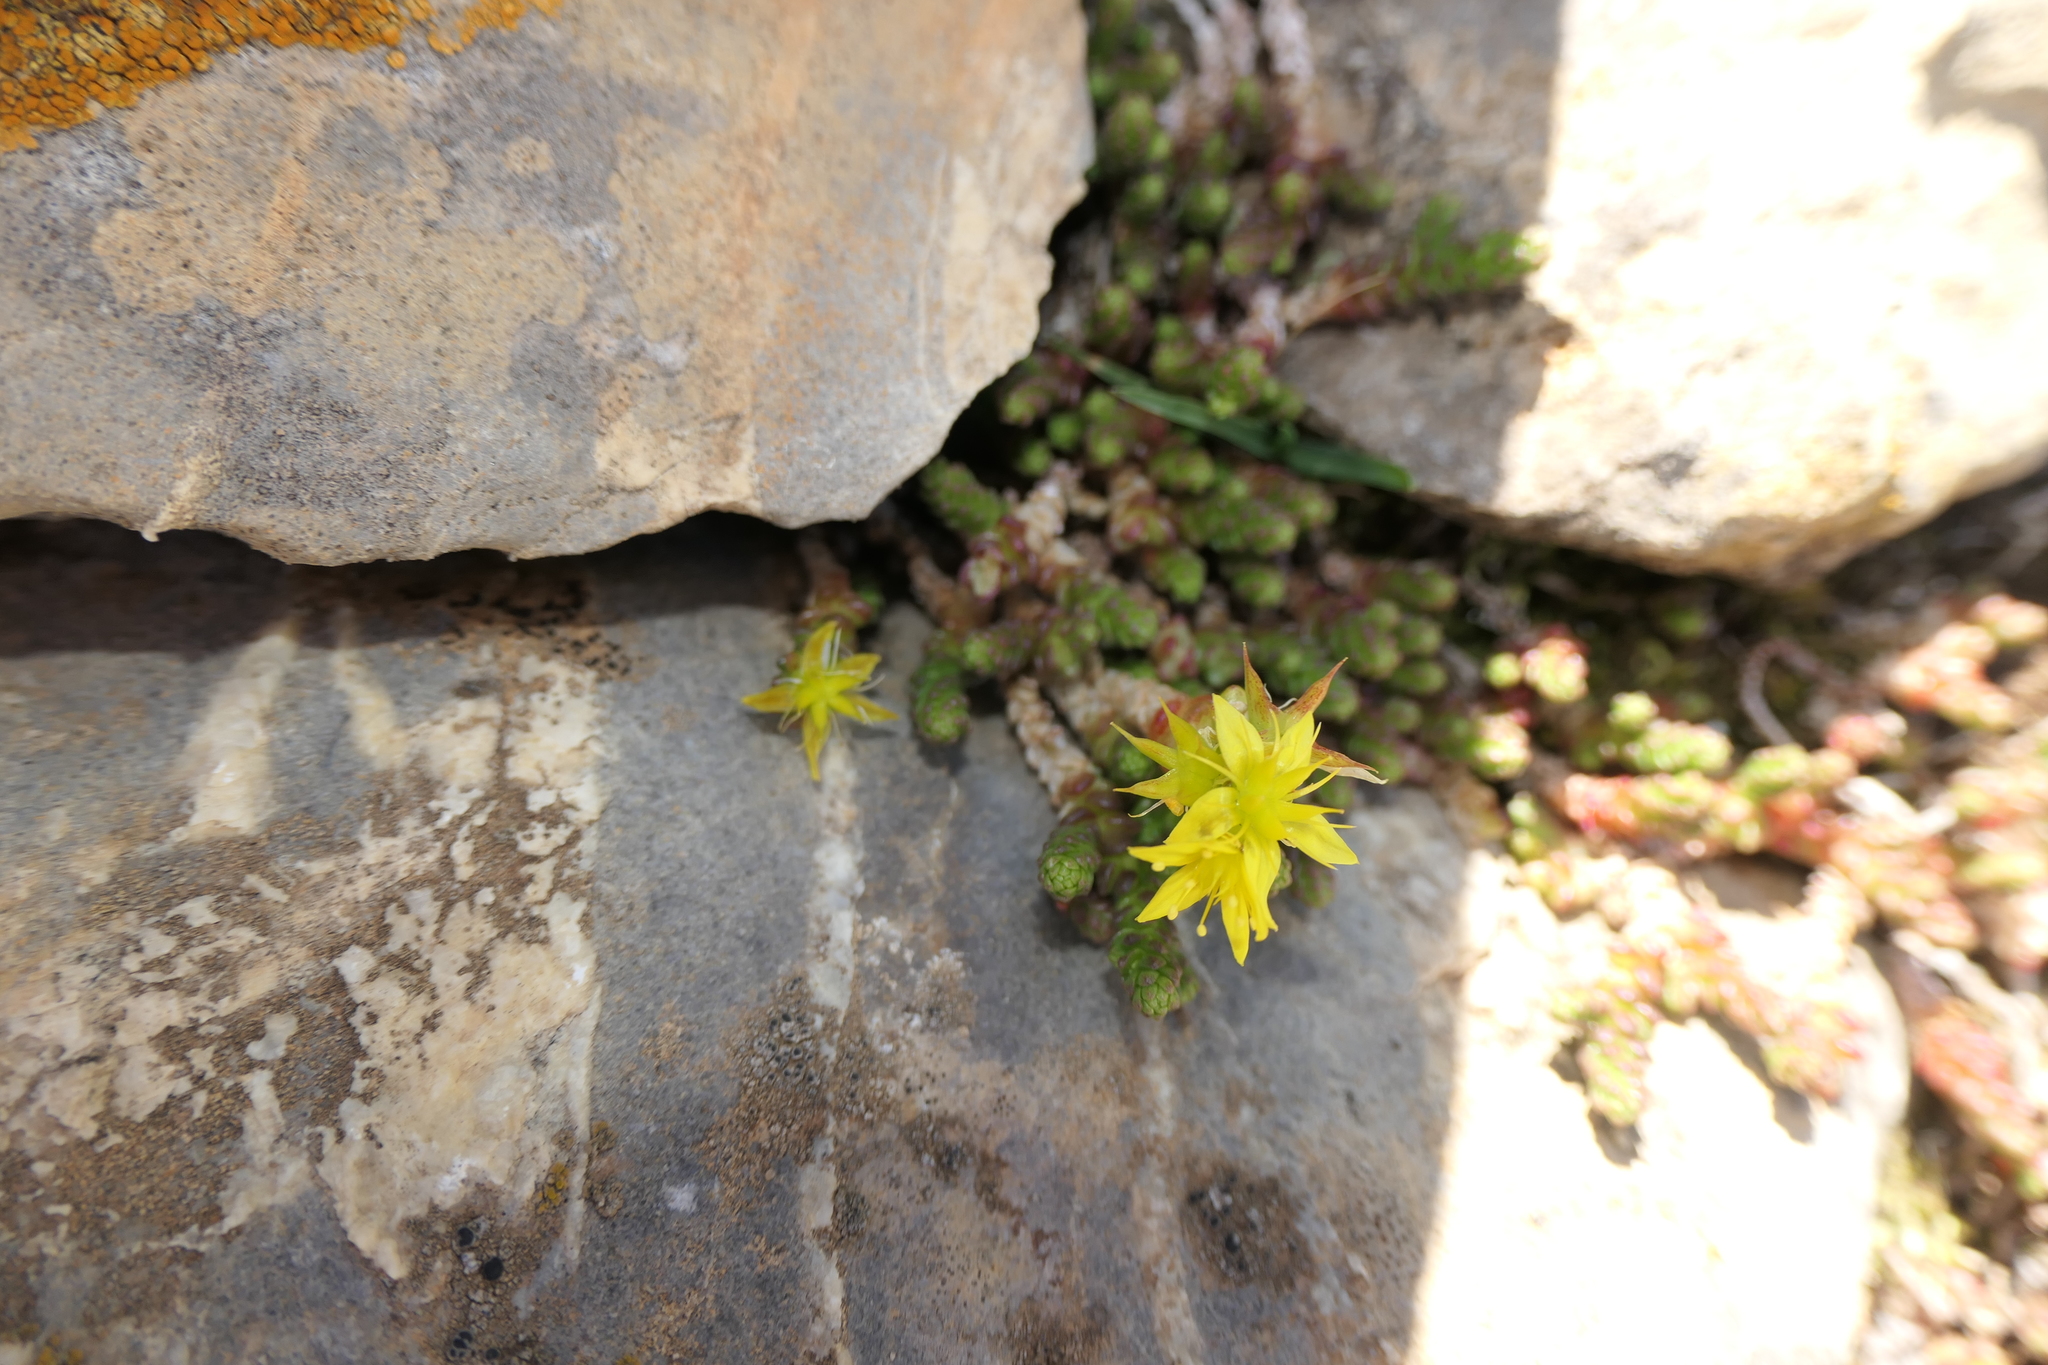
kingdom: Plantae
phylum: Tracheophyta
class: Magnoliopsida
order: Saxifragales
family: Crassulaceae
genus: Sedum
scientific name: Sedum acre
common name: Biting stonecrop
